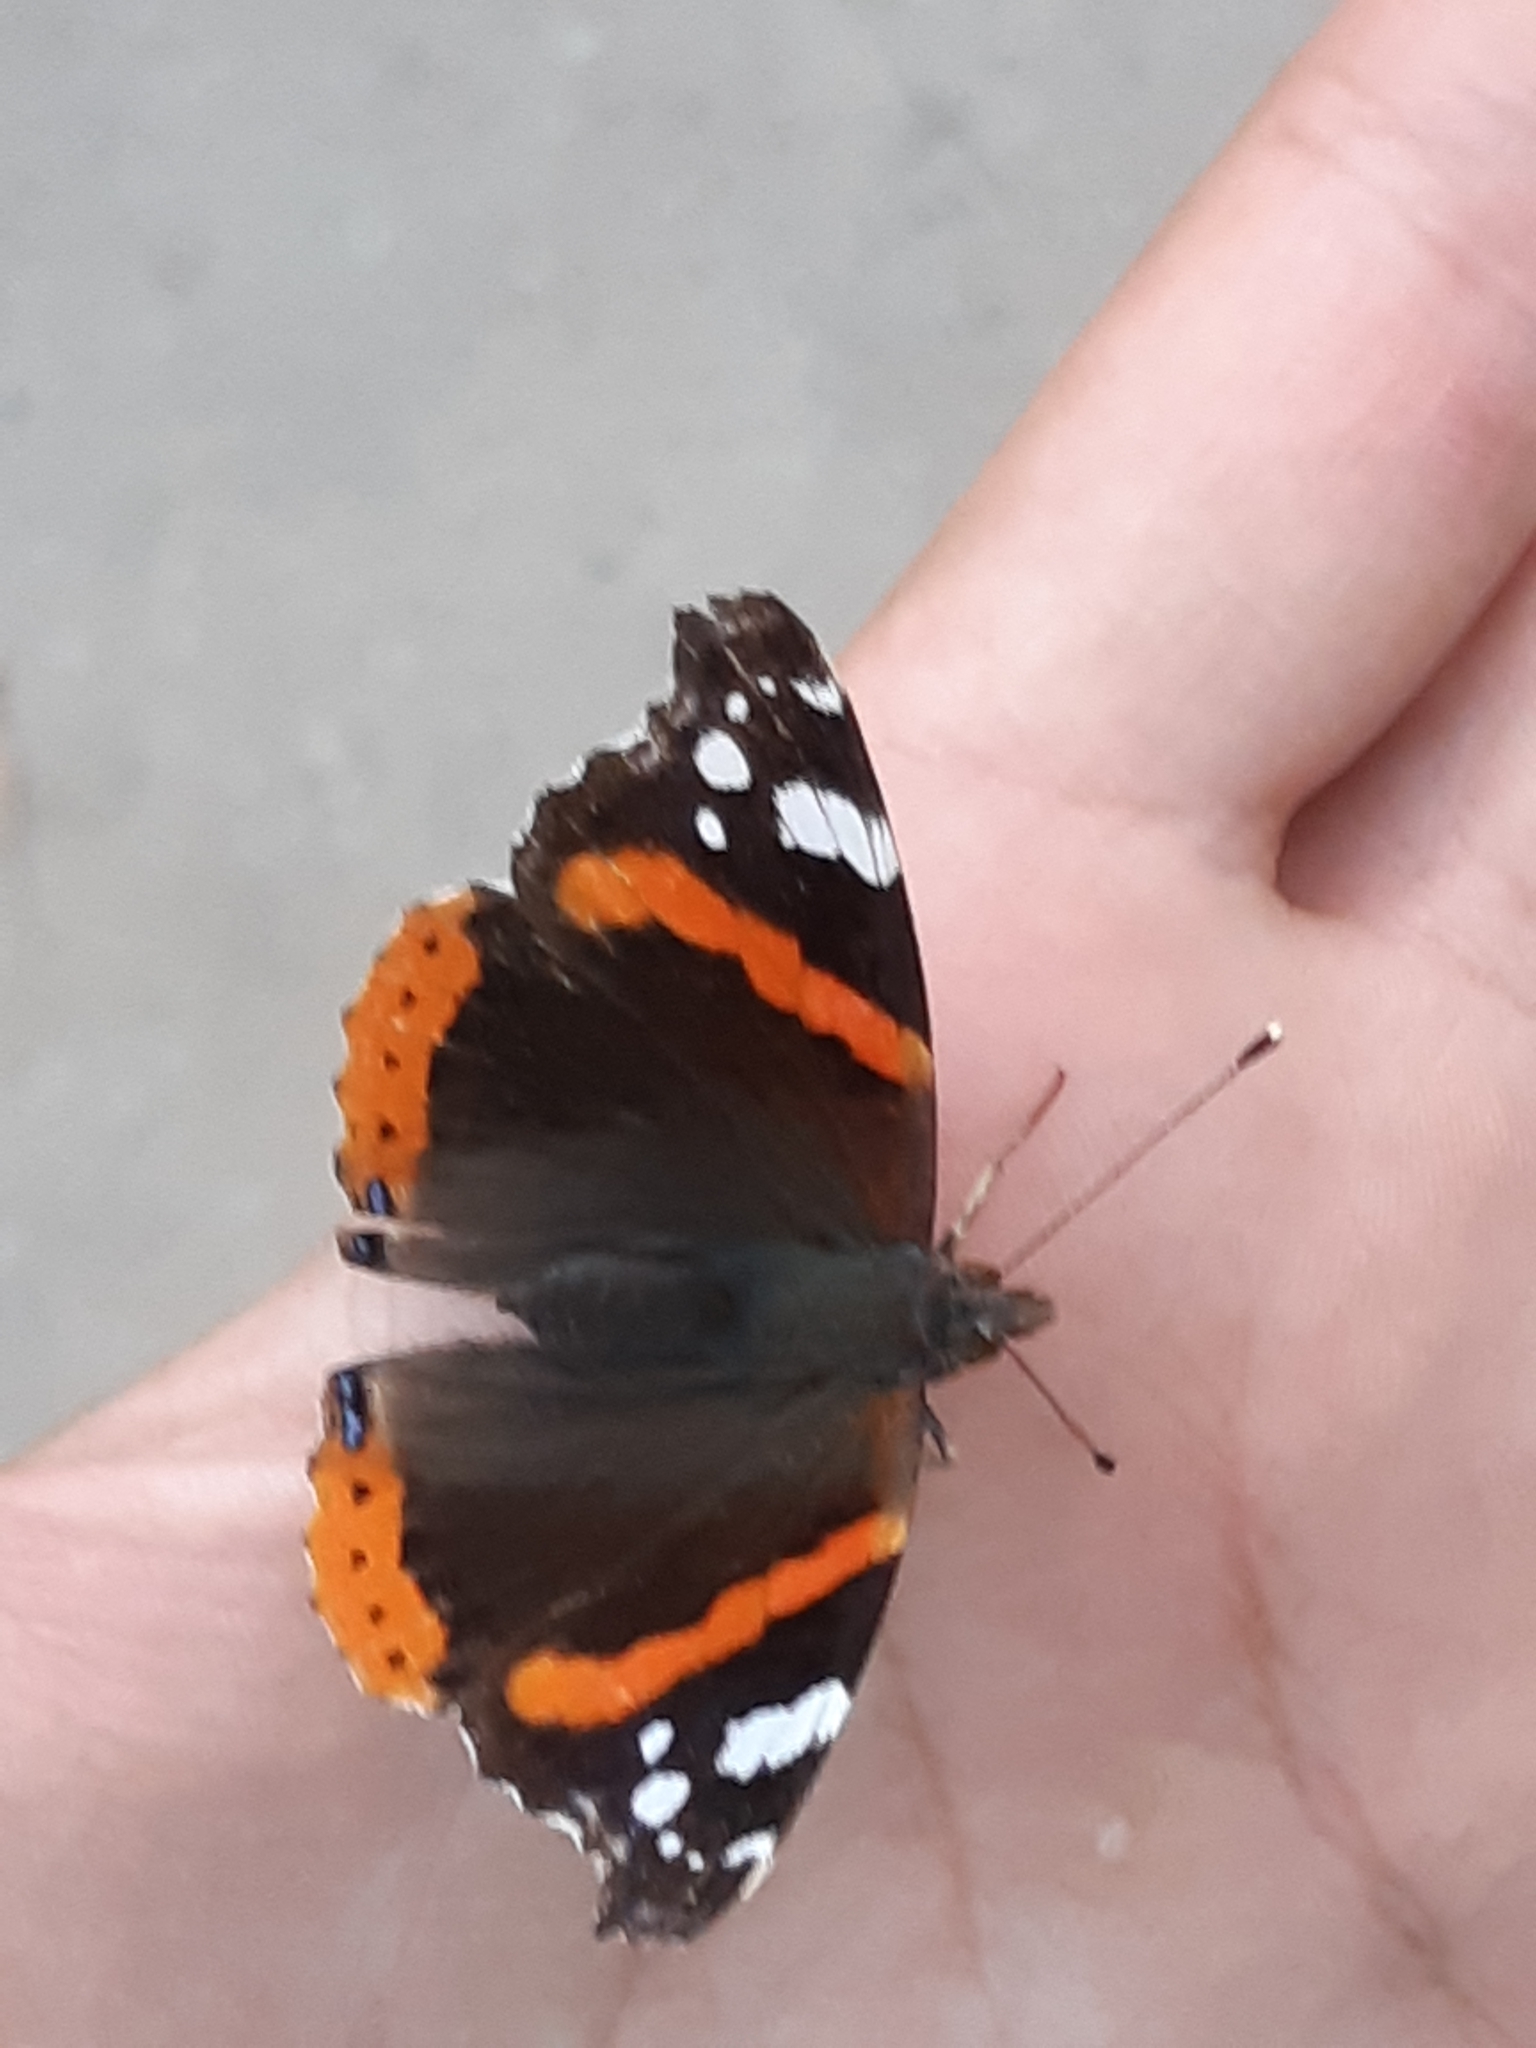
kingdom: Animalia
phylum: Arthropoda
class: Insecta
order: Lepidoptera
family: Nymphalidae
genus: Vanessa
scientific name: Vanessa atalanta
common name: Red admiral
